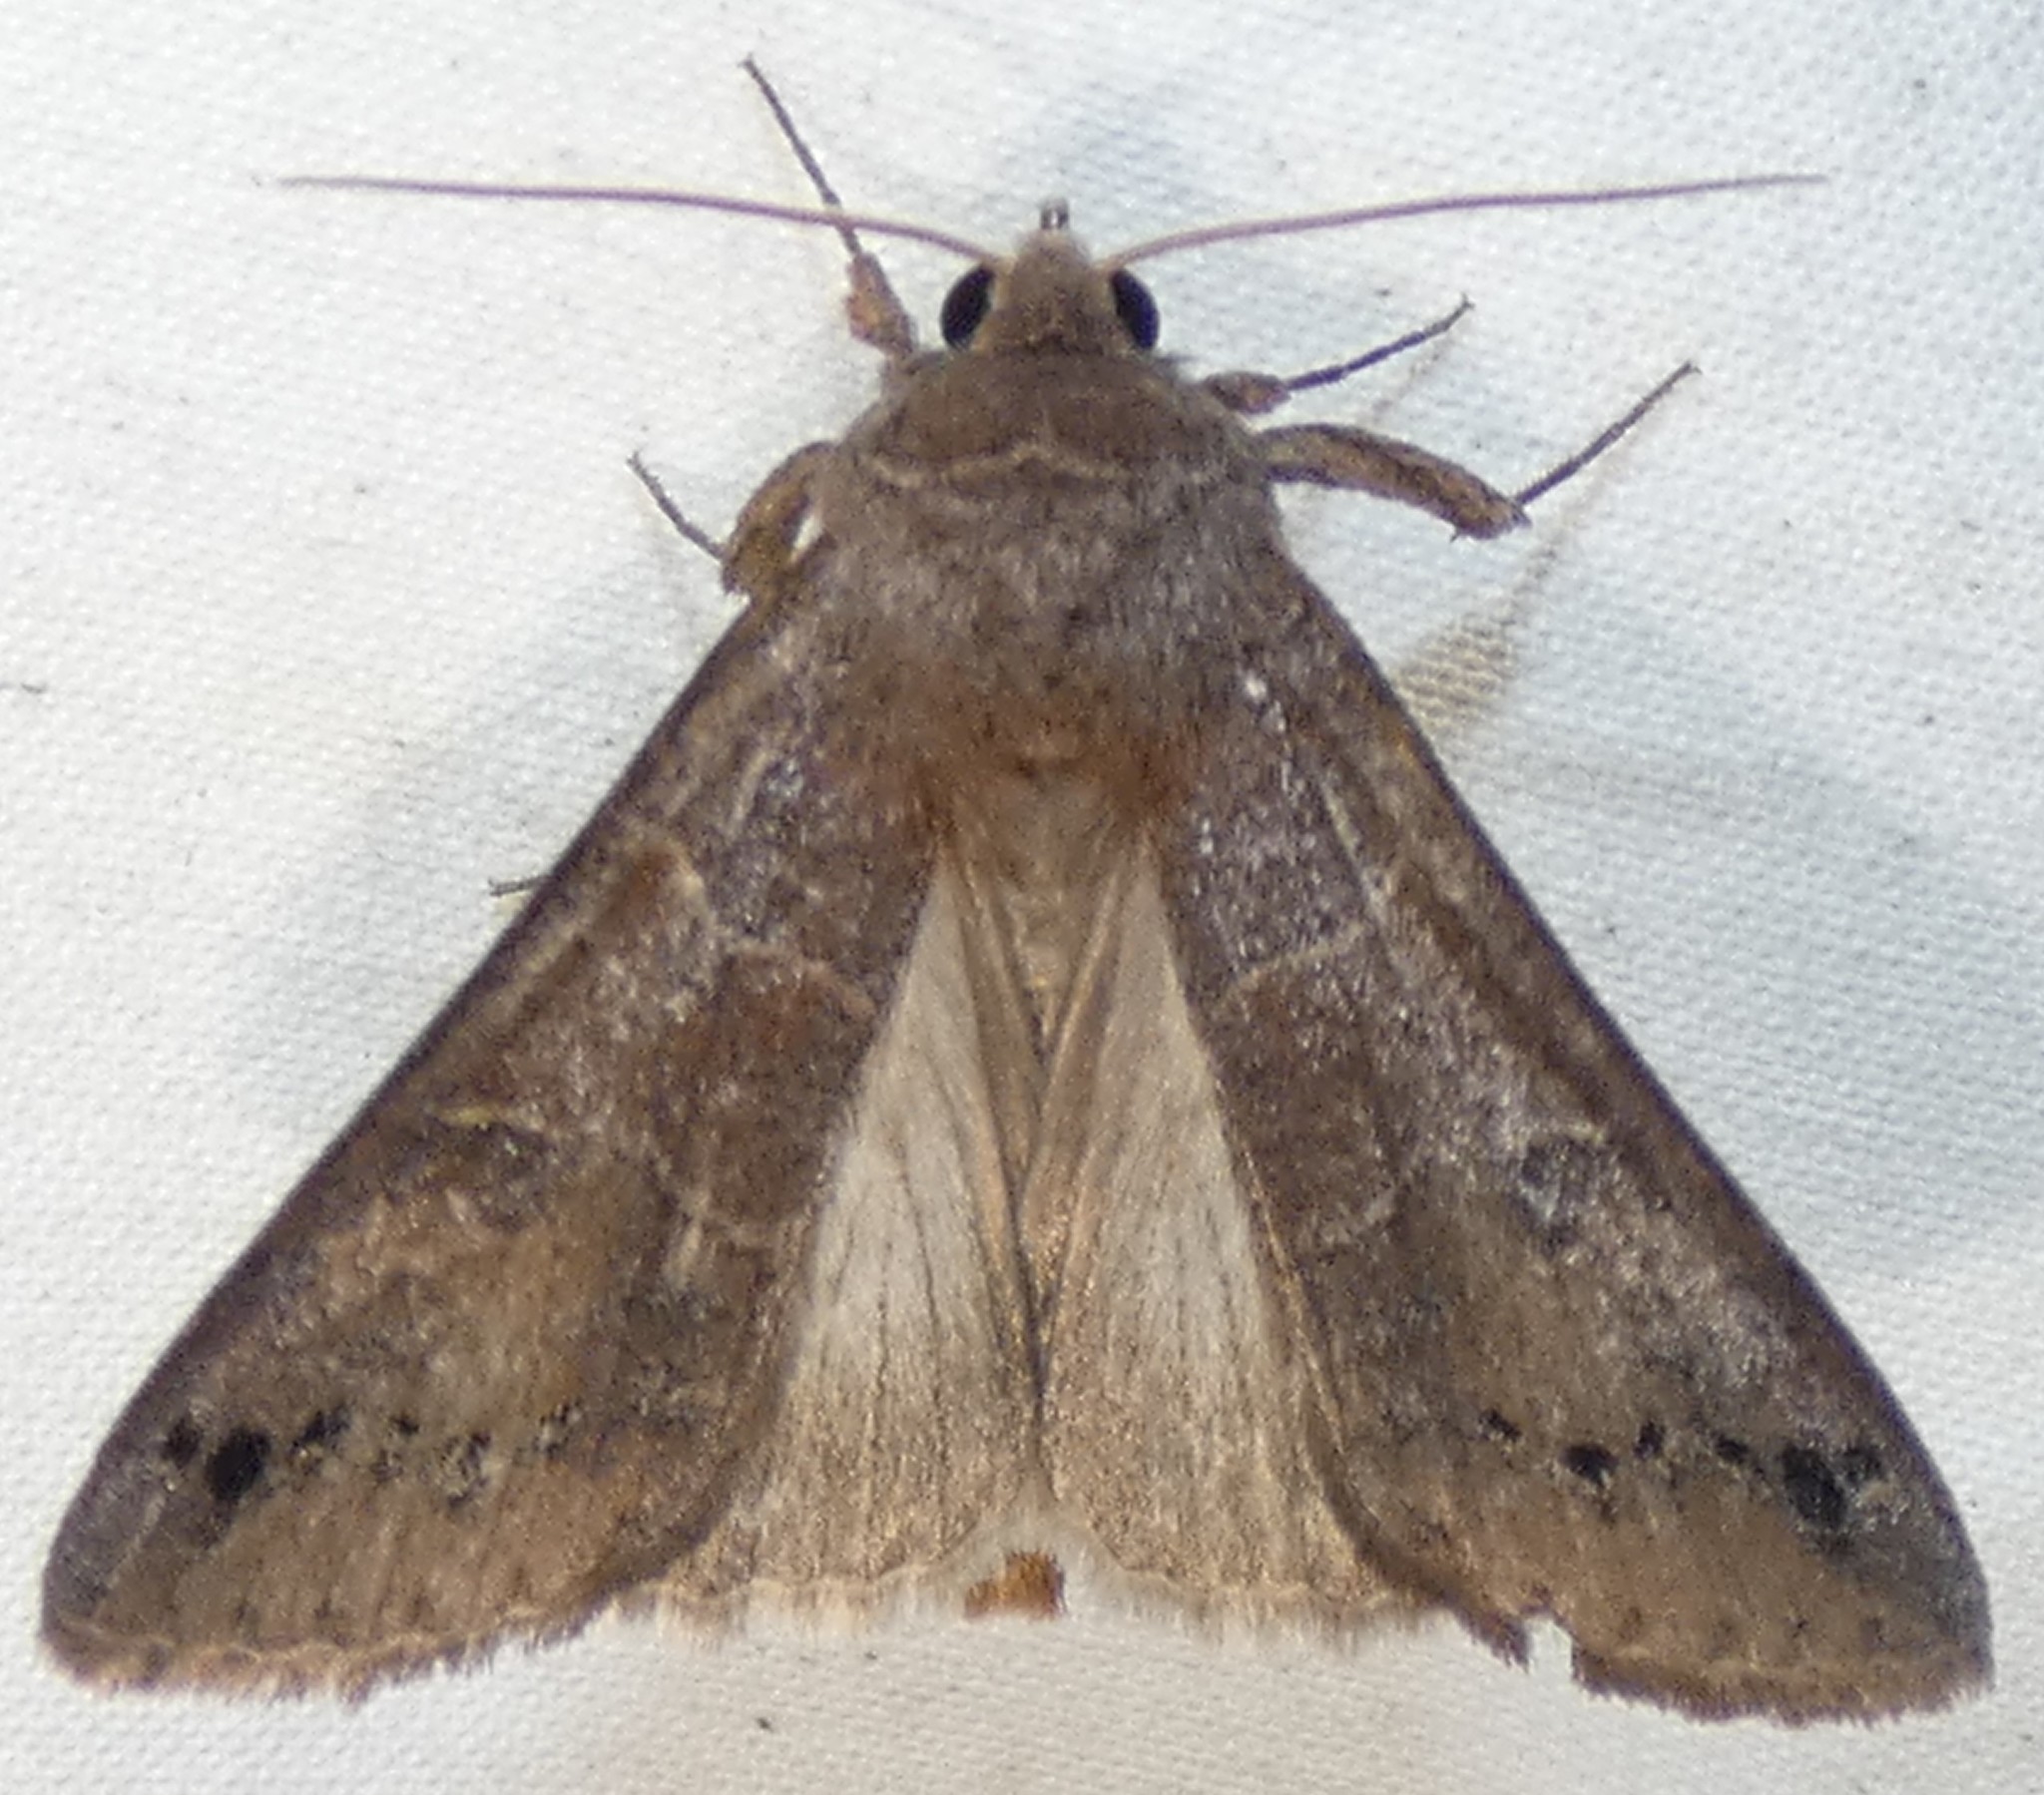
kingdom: Animalia
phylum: Arthropoda
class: Insecta
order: Lepidoptera
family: Erebidae
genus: Cissusa
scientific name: Cissusa spadix
